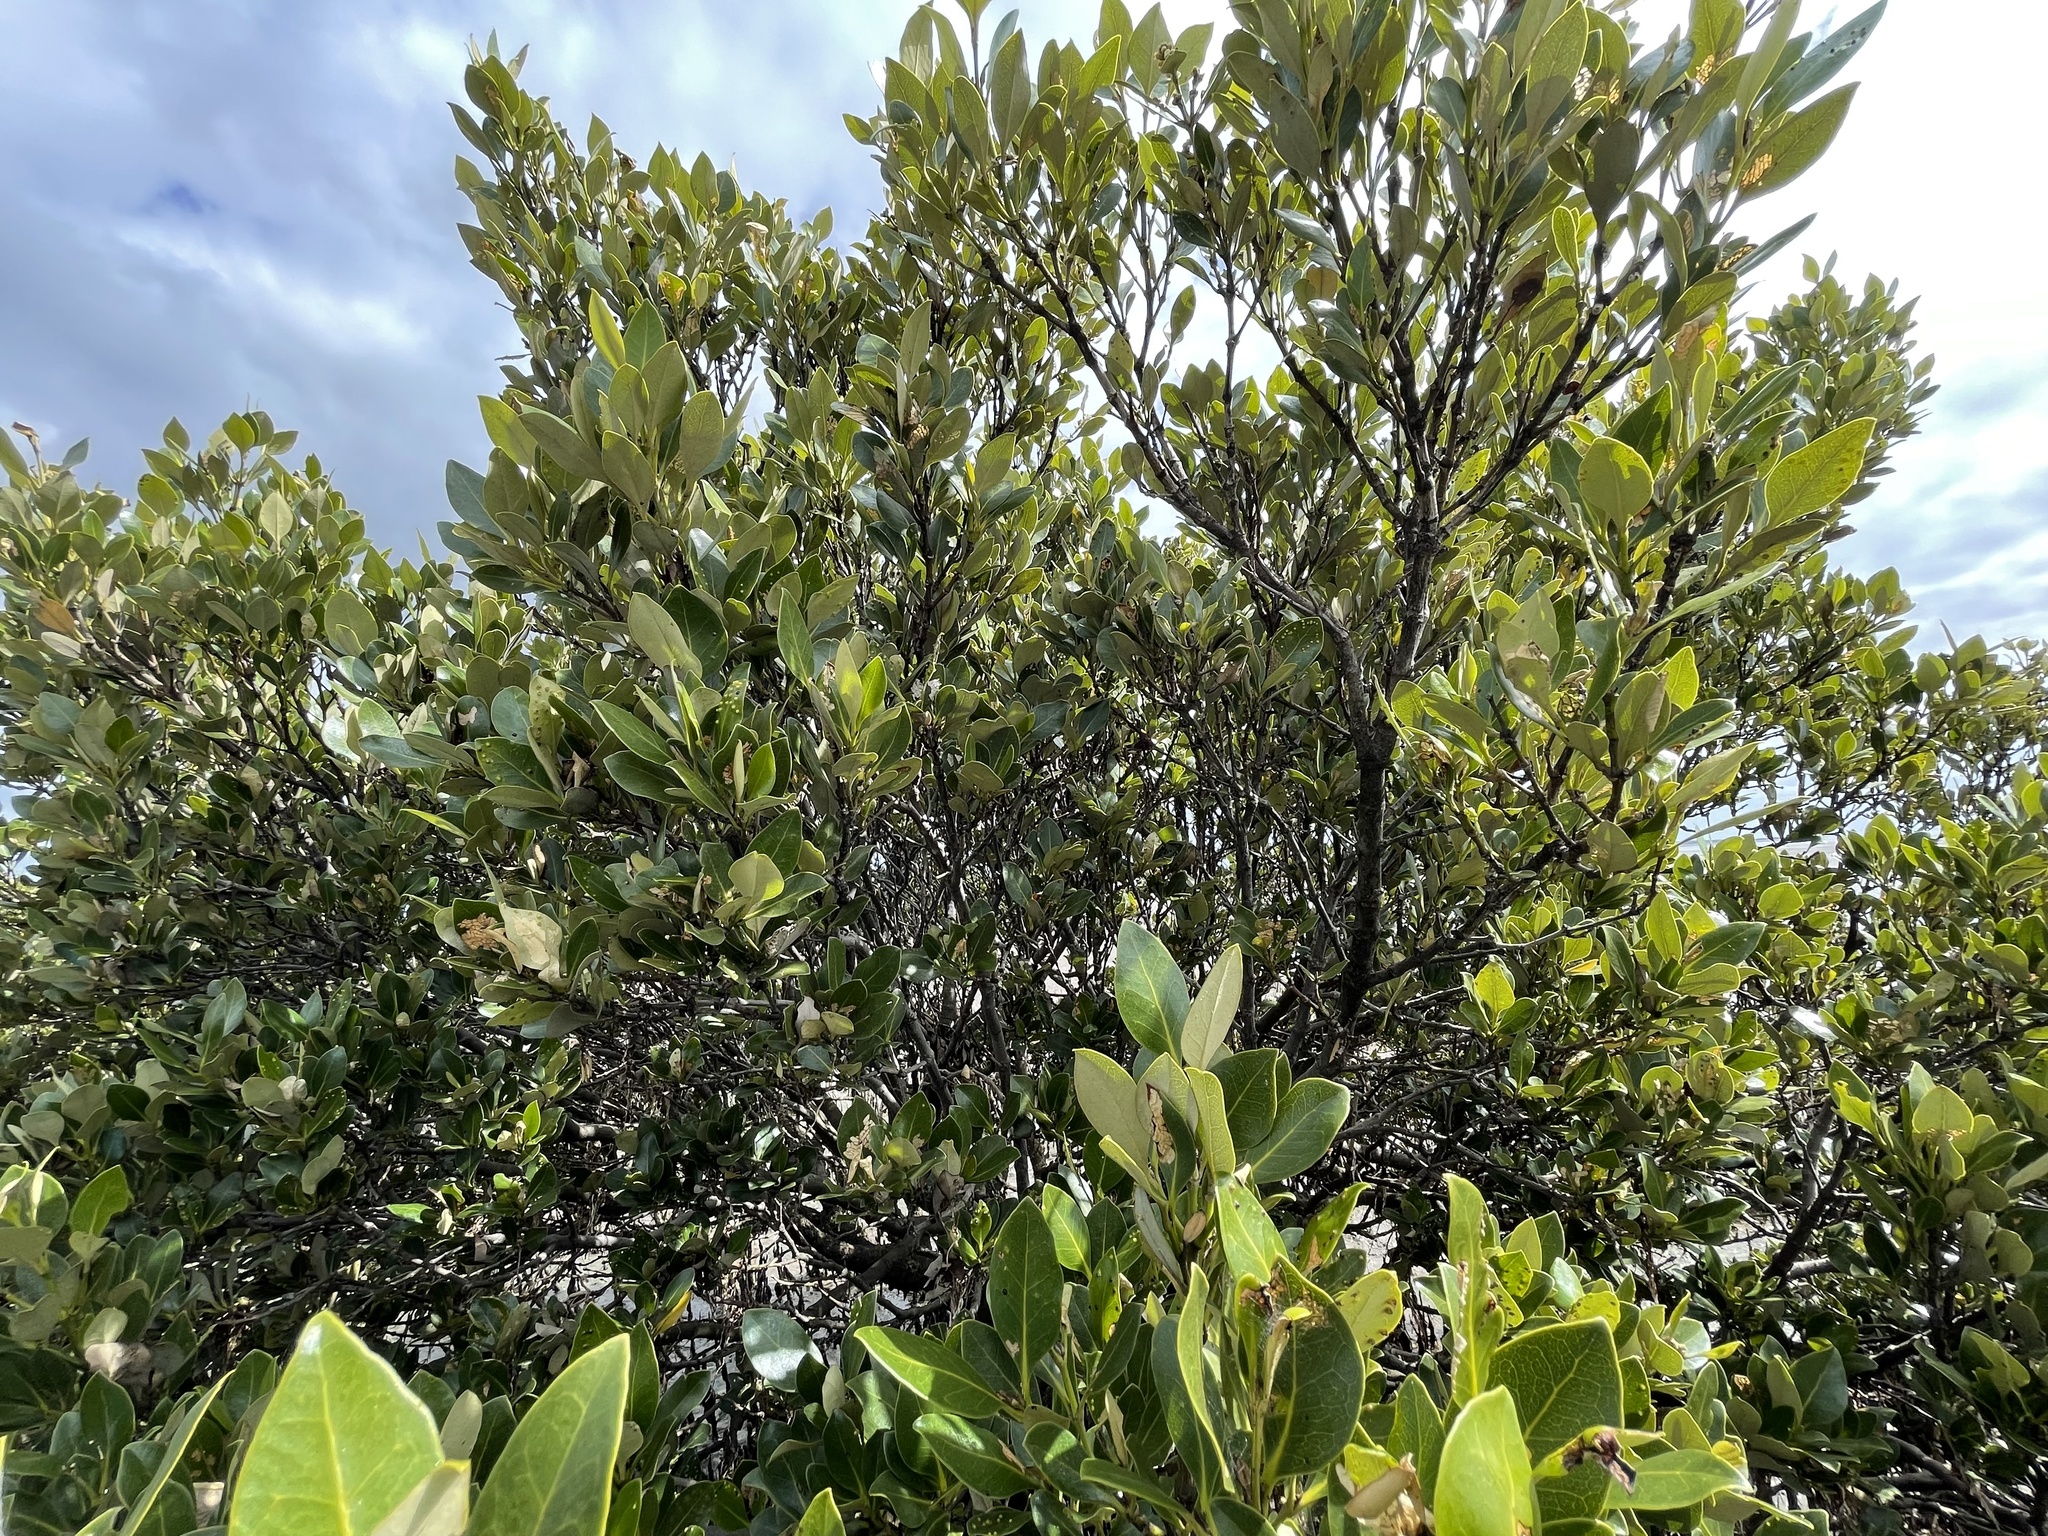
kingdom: Plantae
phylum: Tracheophyta
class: Magnoliopsida
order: Lamiales
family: Acanthaceae
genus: Avicennia
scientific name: Avicennia marina
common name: Gray mangrove
